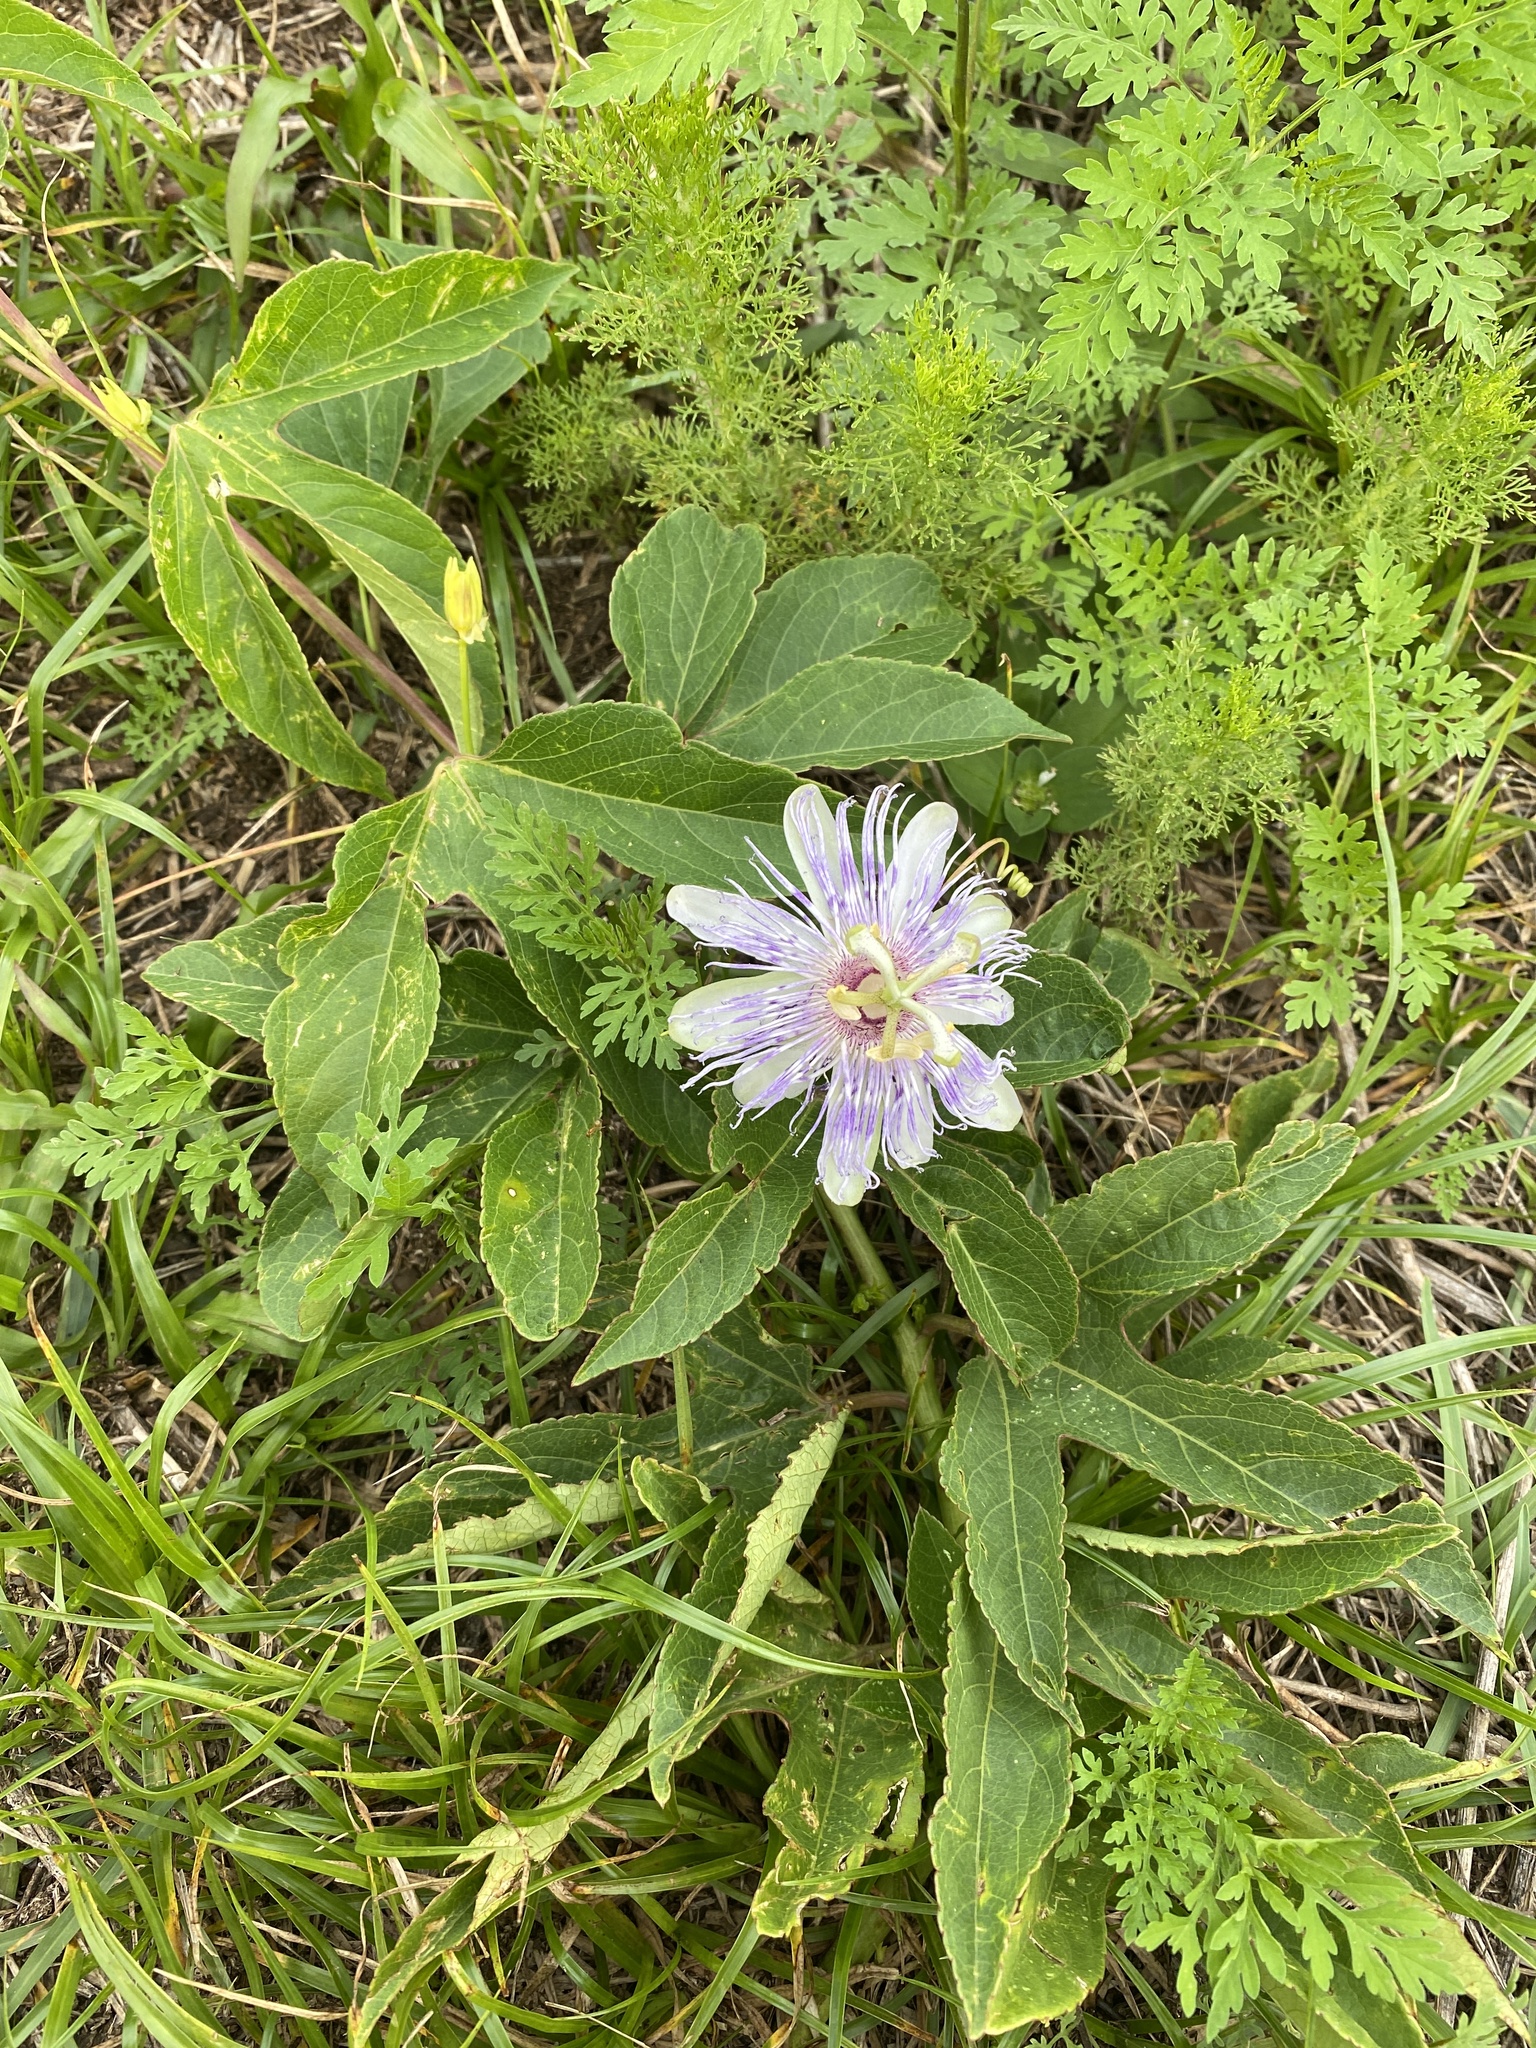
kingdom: Plantae
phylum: Tracheophyta
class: Magnoliopsida
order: Malpighiales
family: Passifloraceae
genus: Passiflora
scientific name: Passiflora incarnata
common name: Apricot-vine
